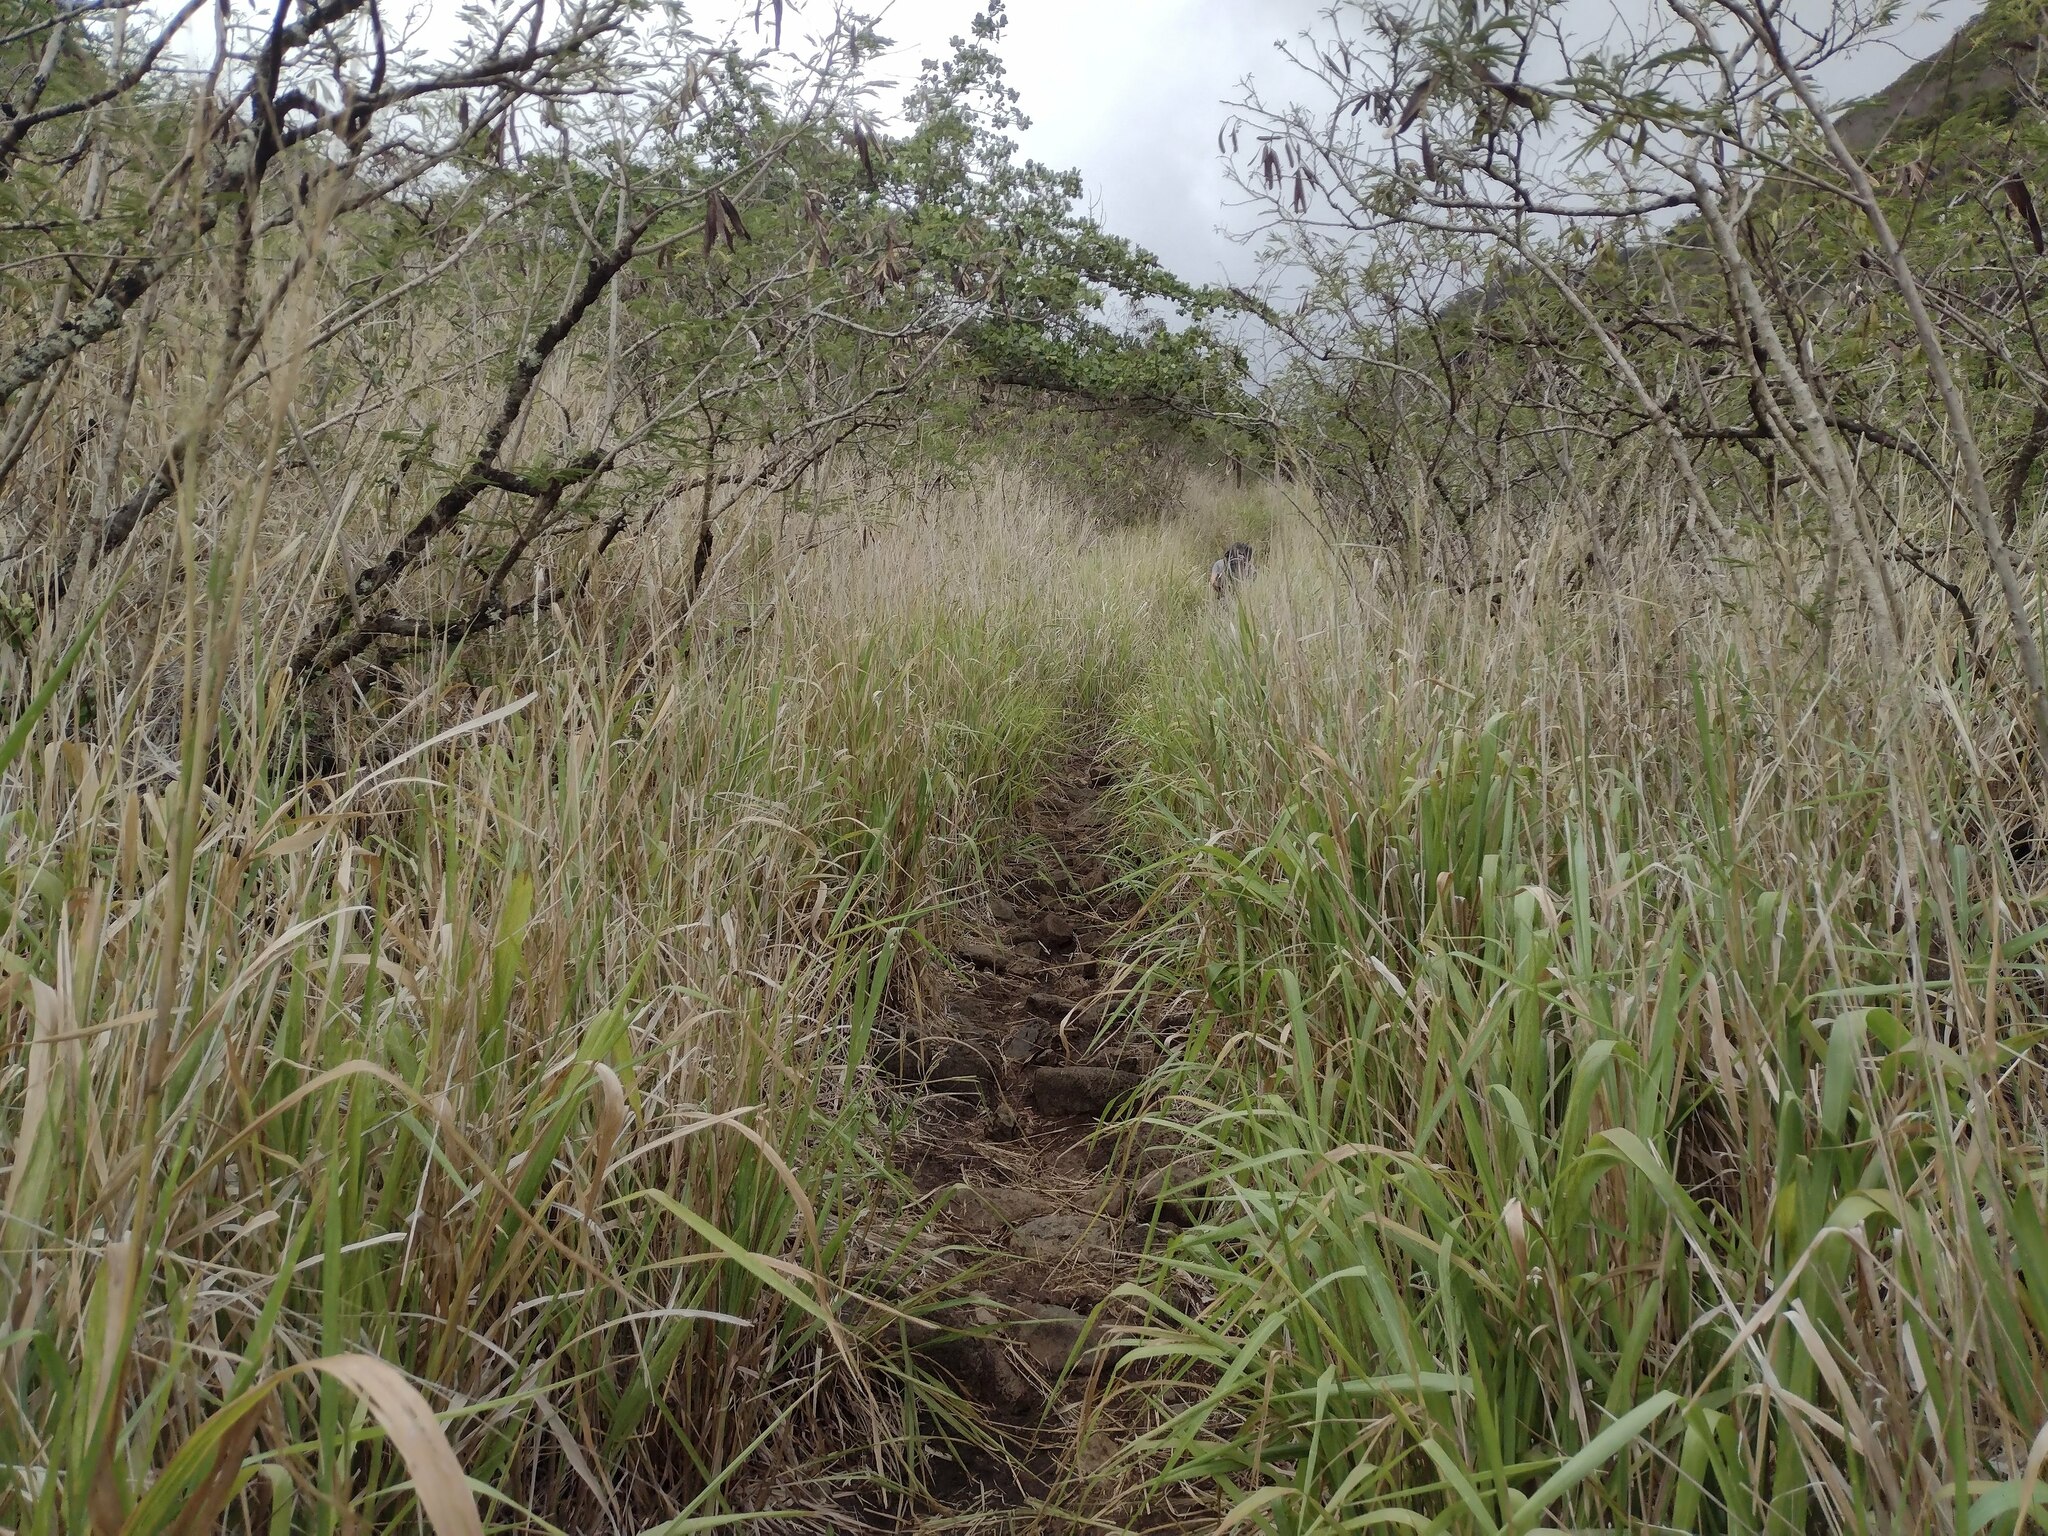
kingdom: Plantae
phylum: Tracheophyta
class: Liliopsida
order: Poales
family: Poaceae
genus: Megathyrsus
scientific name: Megathyrsus maximus
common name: Guineagrass
